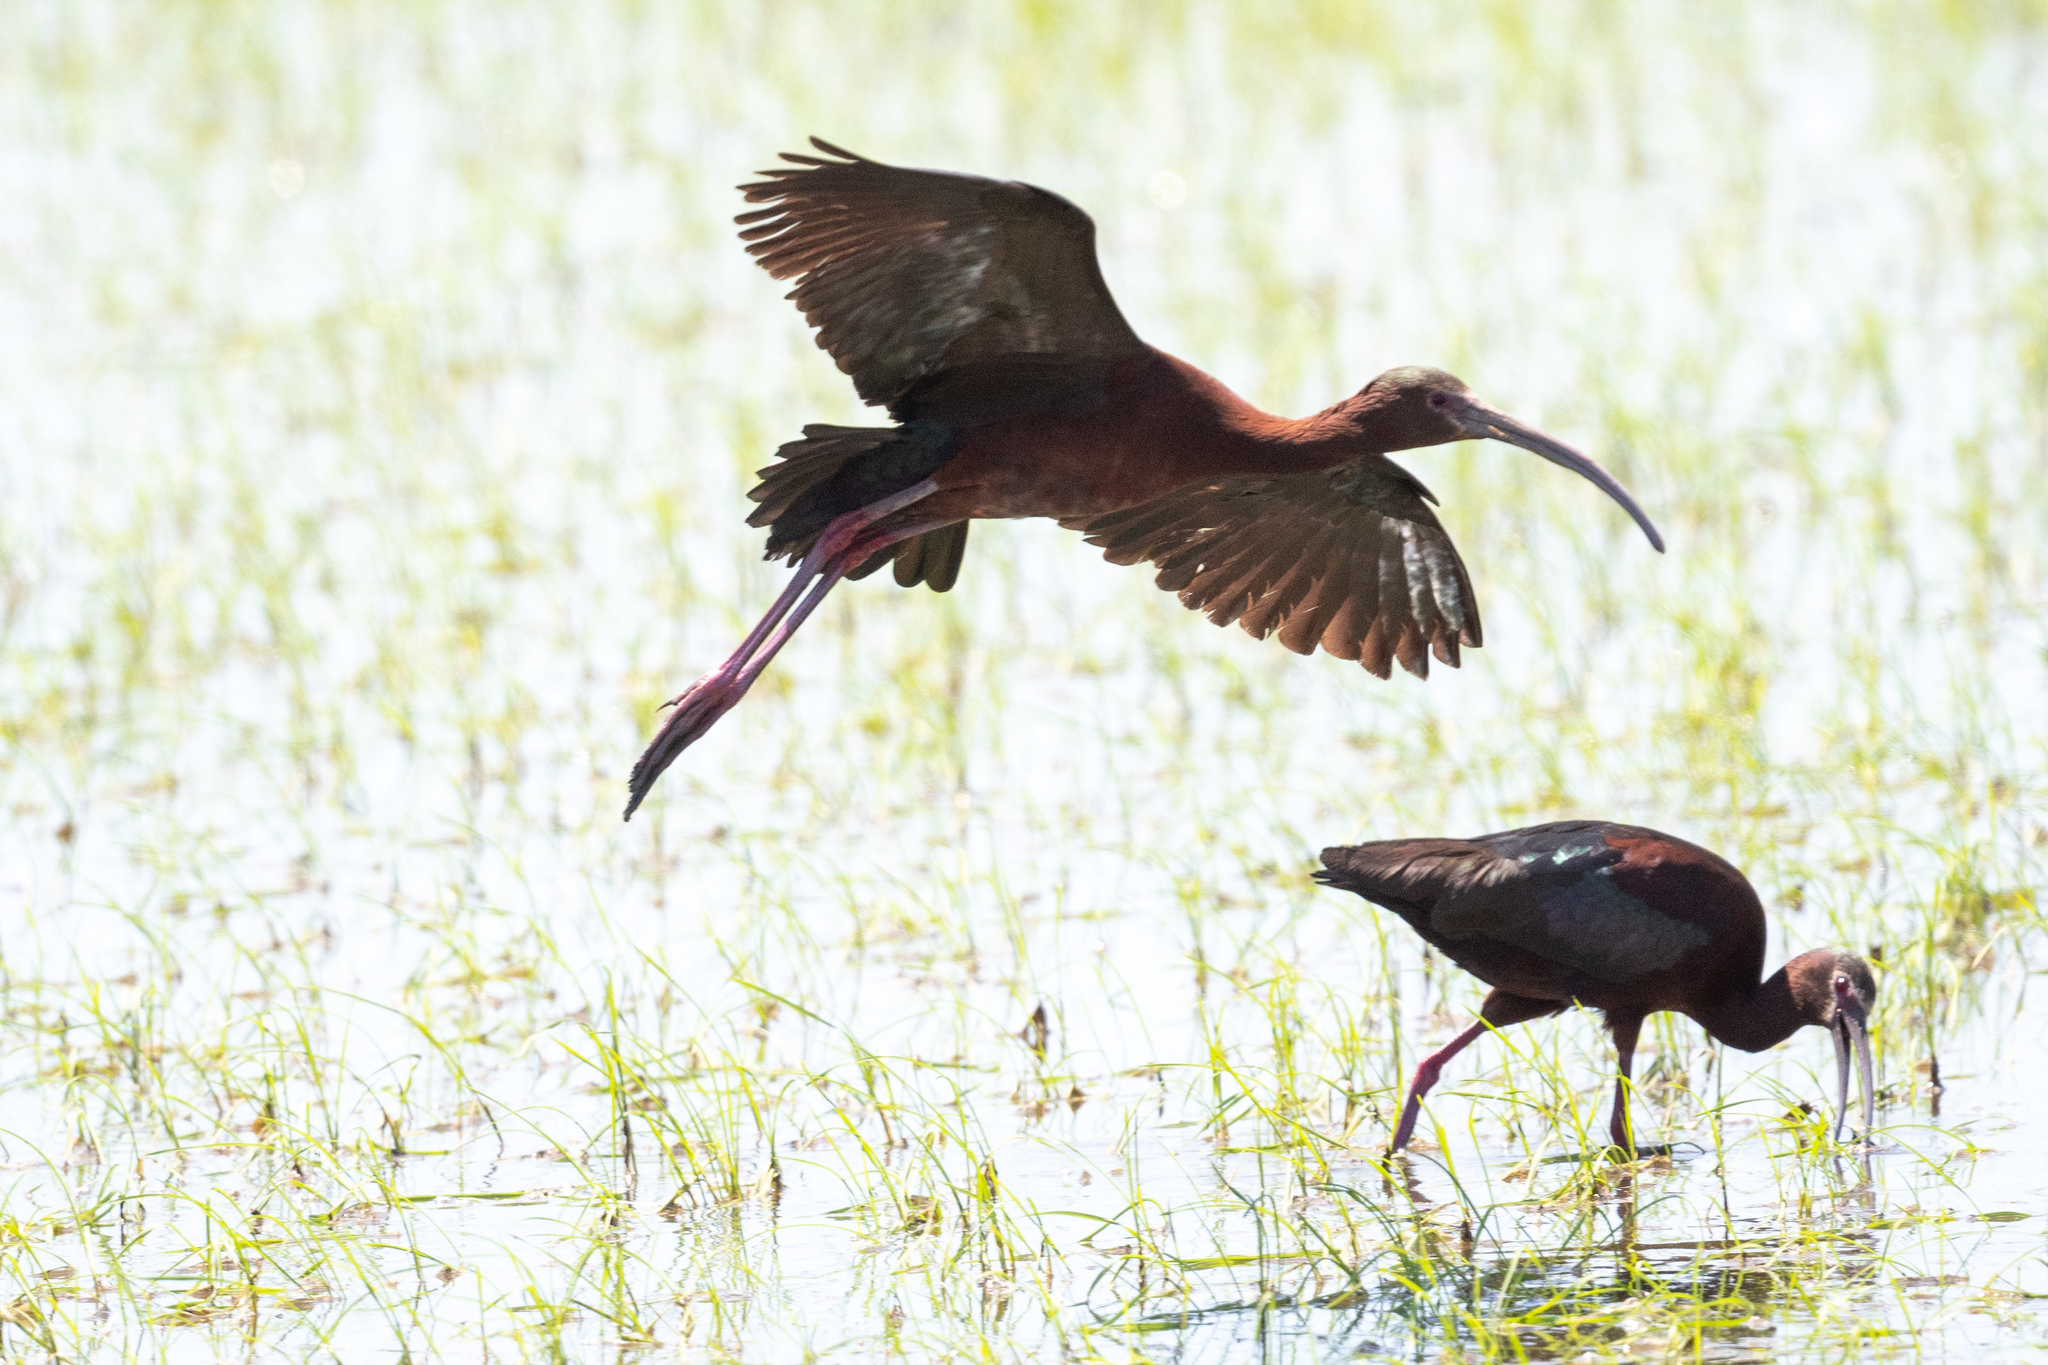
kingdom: Animalia
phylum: Chordata
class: Aves
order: Pelecaniformes
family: Threskiornithidae
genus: Plegadis
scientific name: Plegadis chihi
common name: White-faced ibis
